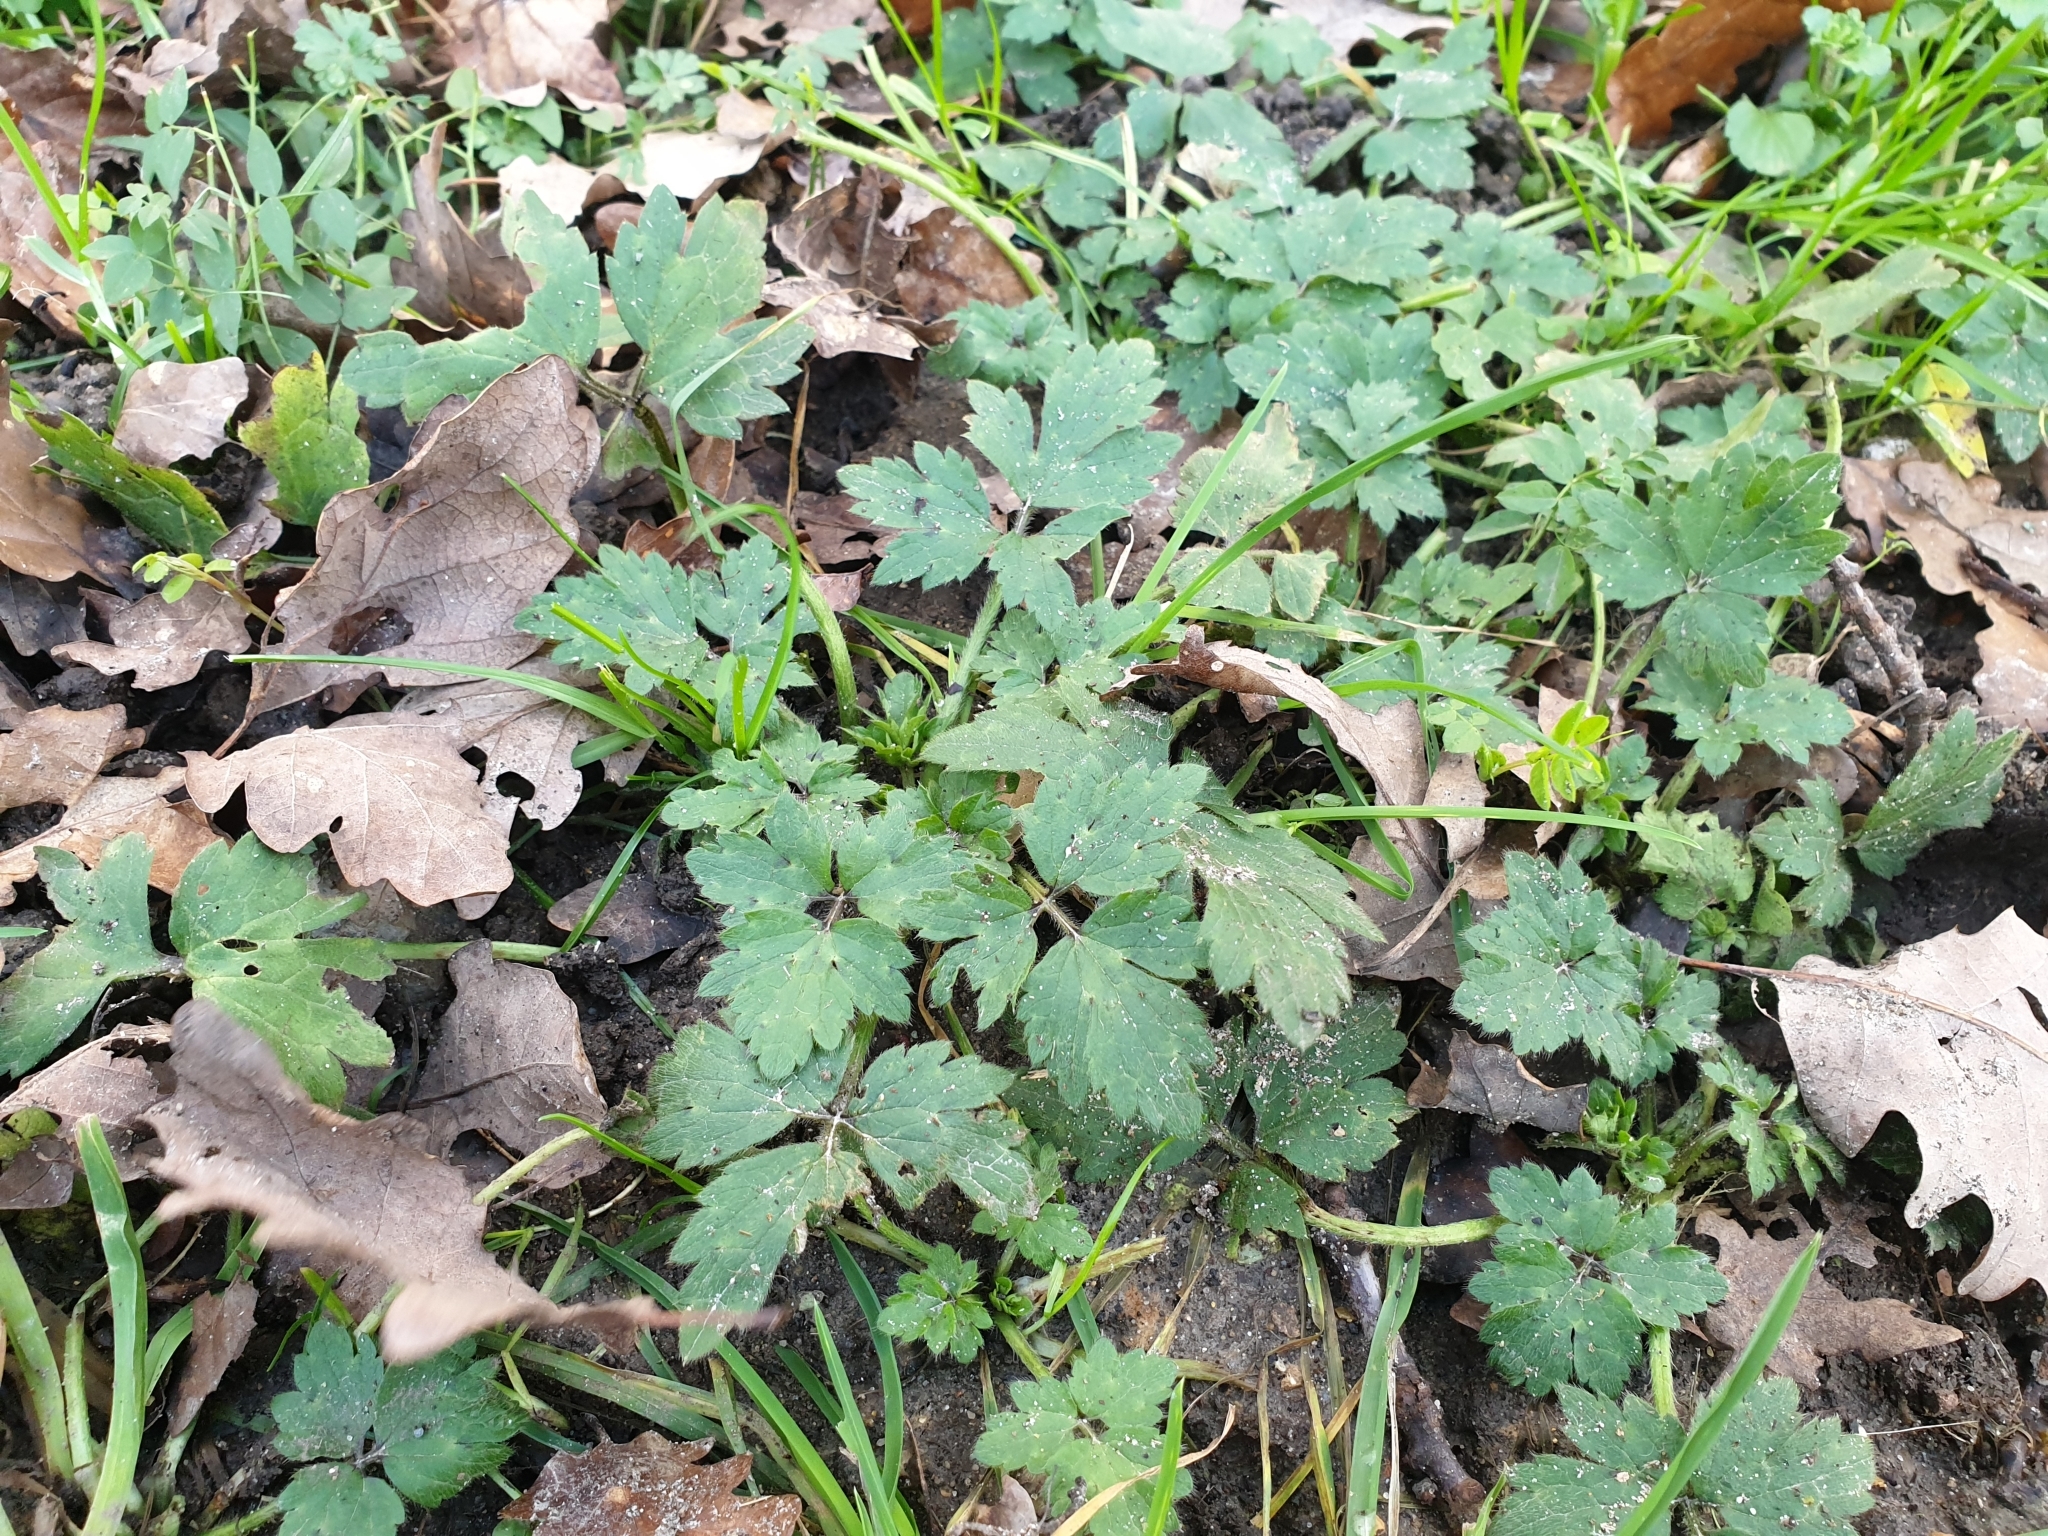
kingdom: Plantae
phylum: Tracheophyta
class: Magnoliopsida
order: Ranunculales
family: Ranunculaceae
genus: Ranunculus
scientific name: Ranunculus repens
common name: Creeping buttercup
